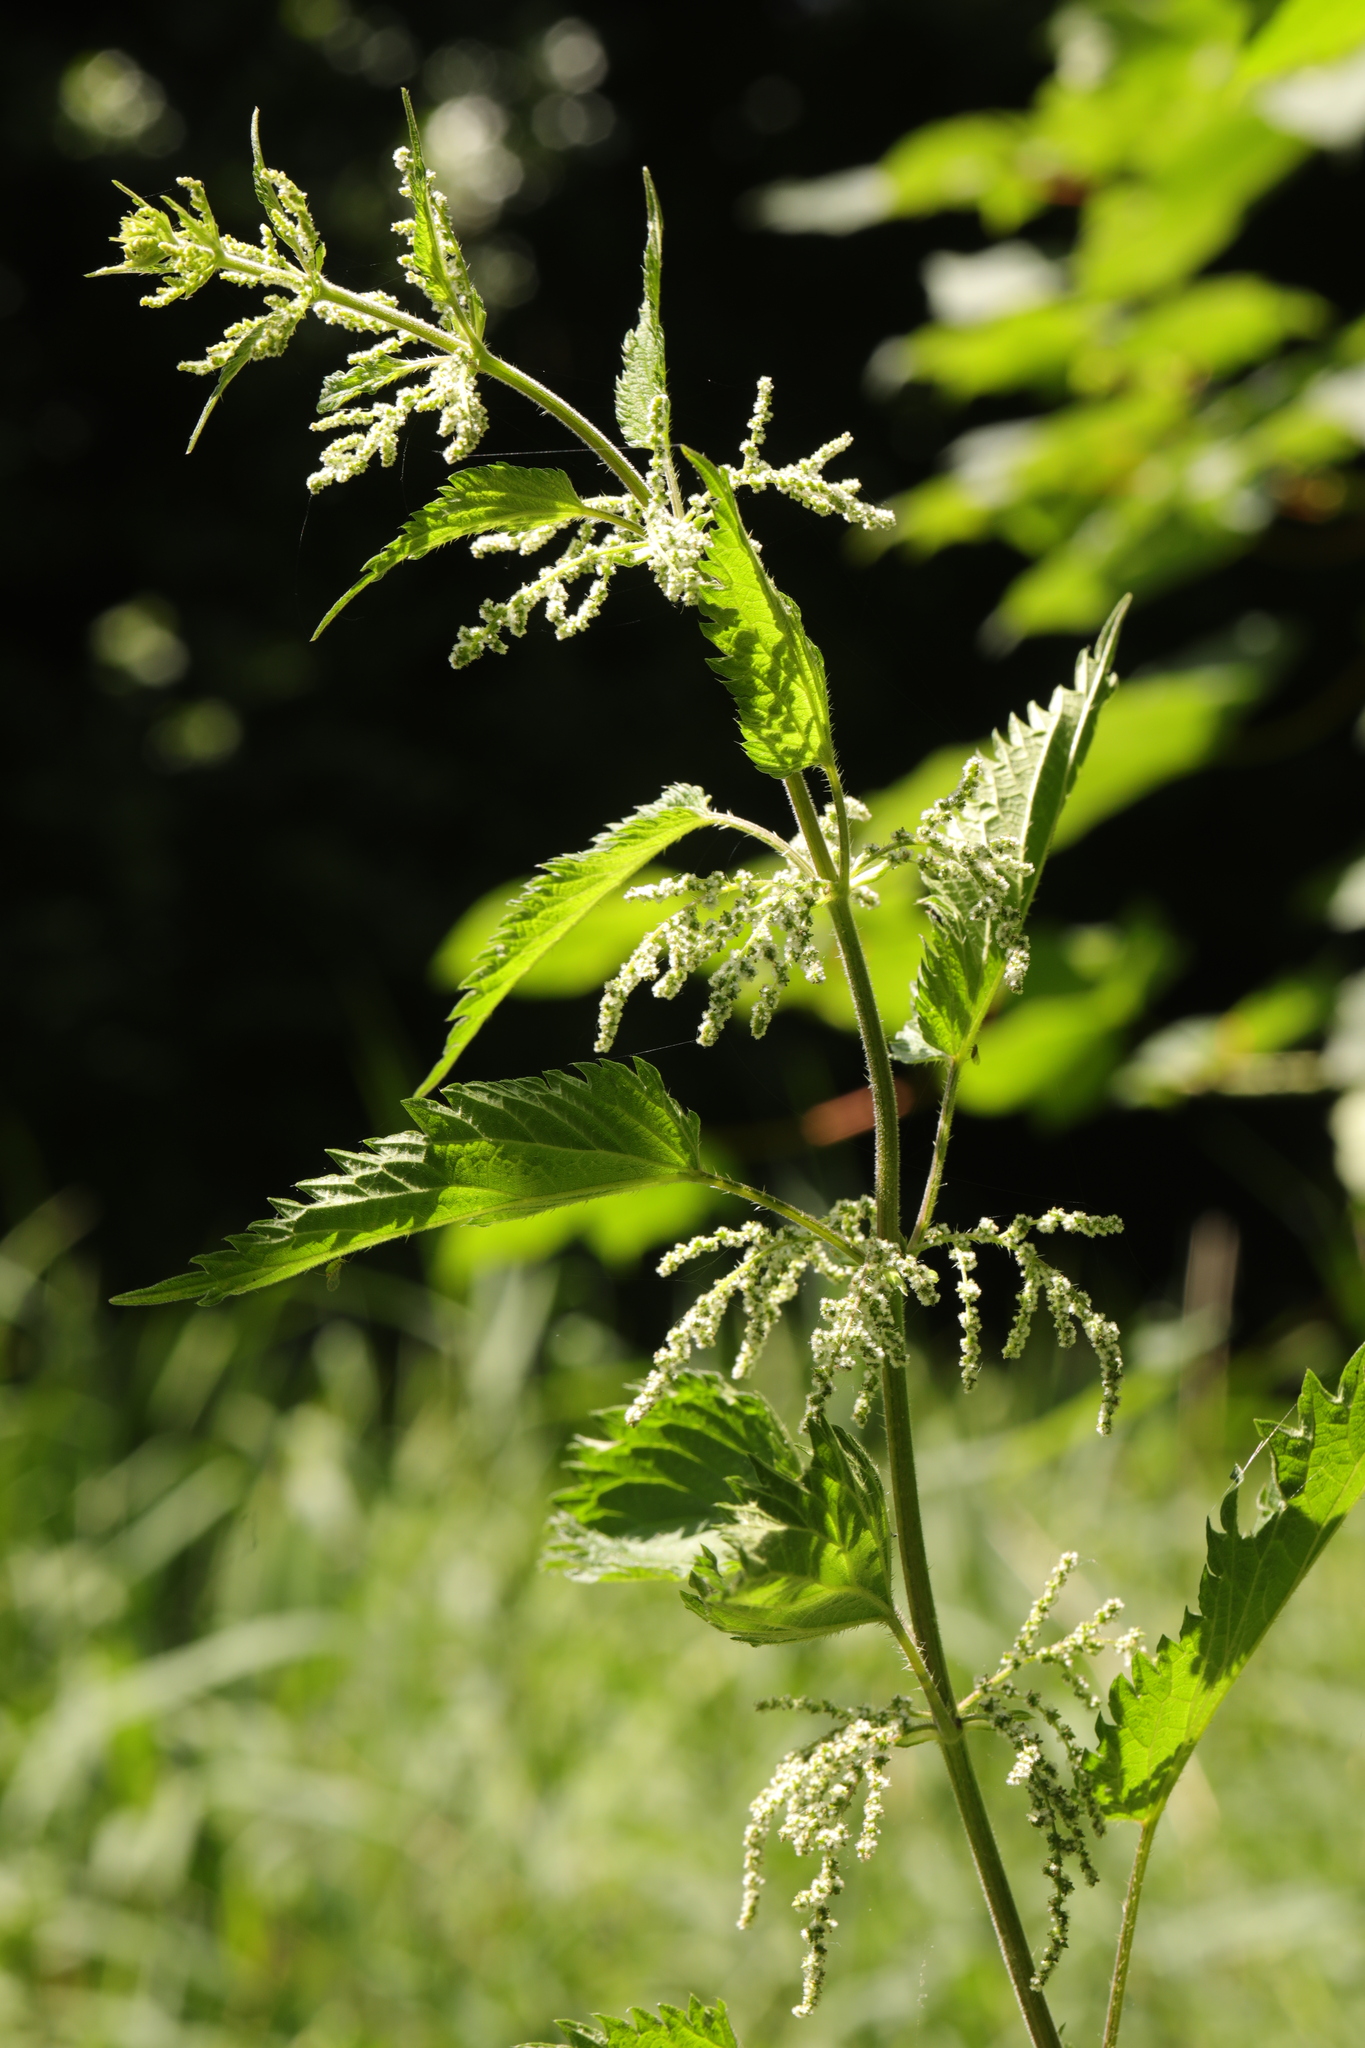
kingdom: Plantae
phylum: Tracheophyta
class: Magnoliopsida
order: Rosales
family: Urticaceae
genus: Urtica
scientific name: Urtica dioica
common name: Common nettle
